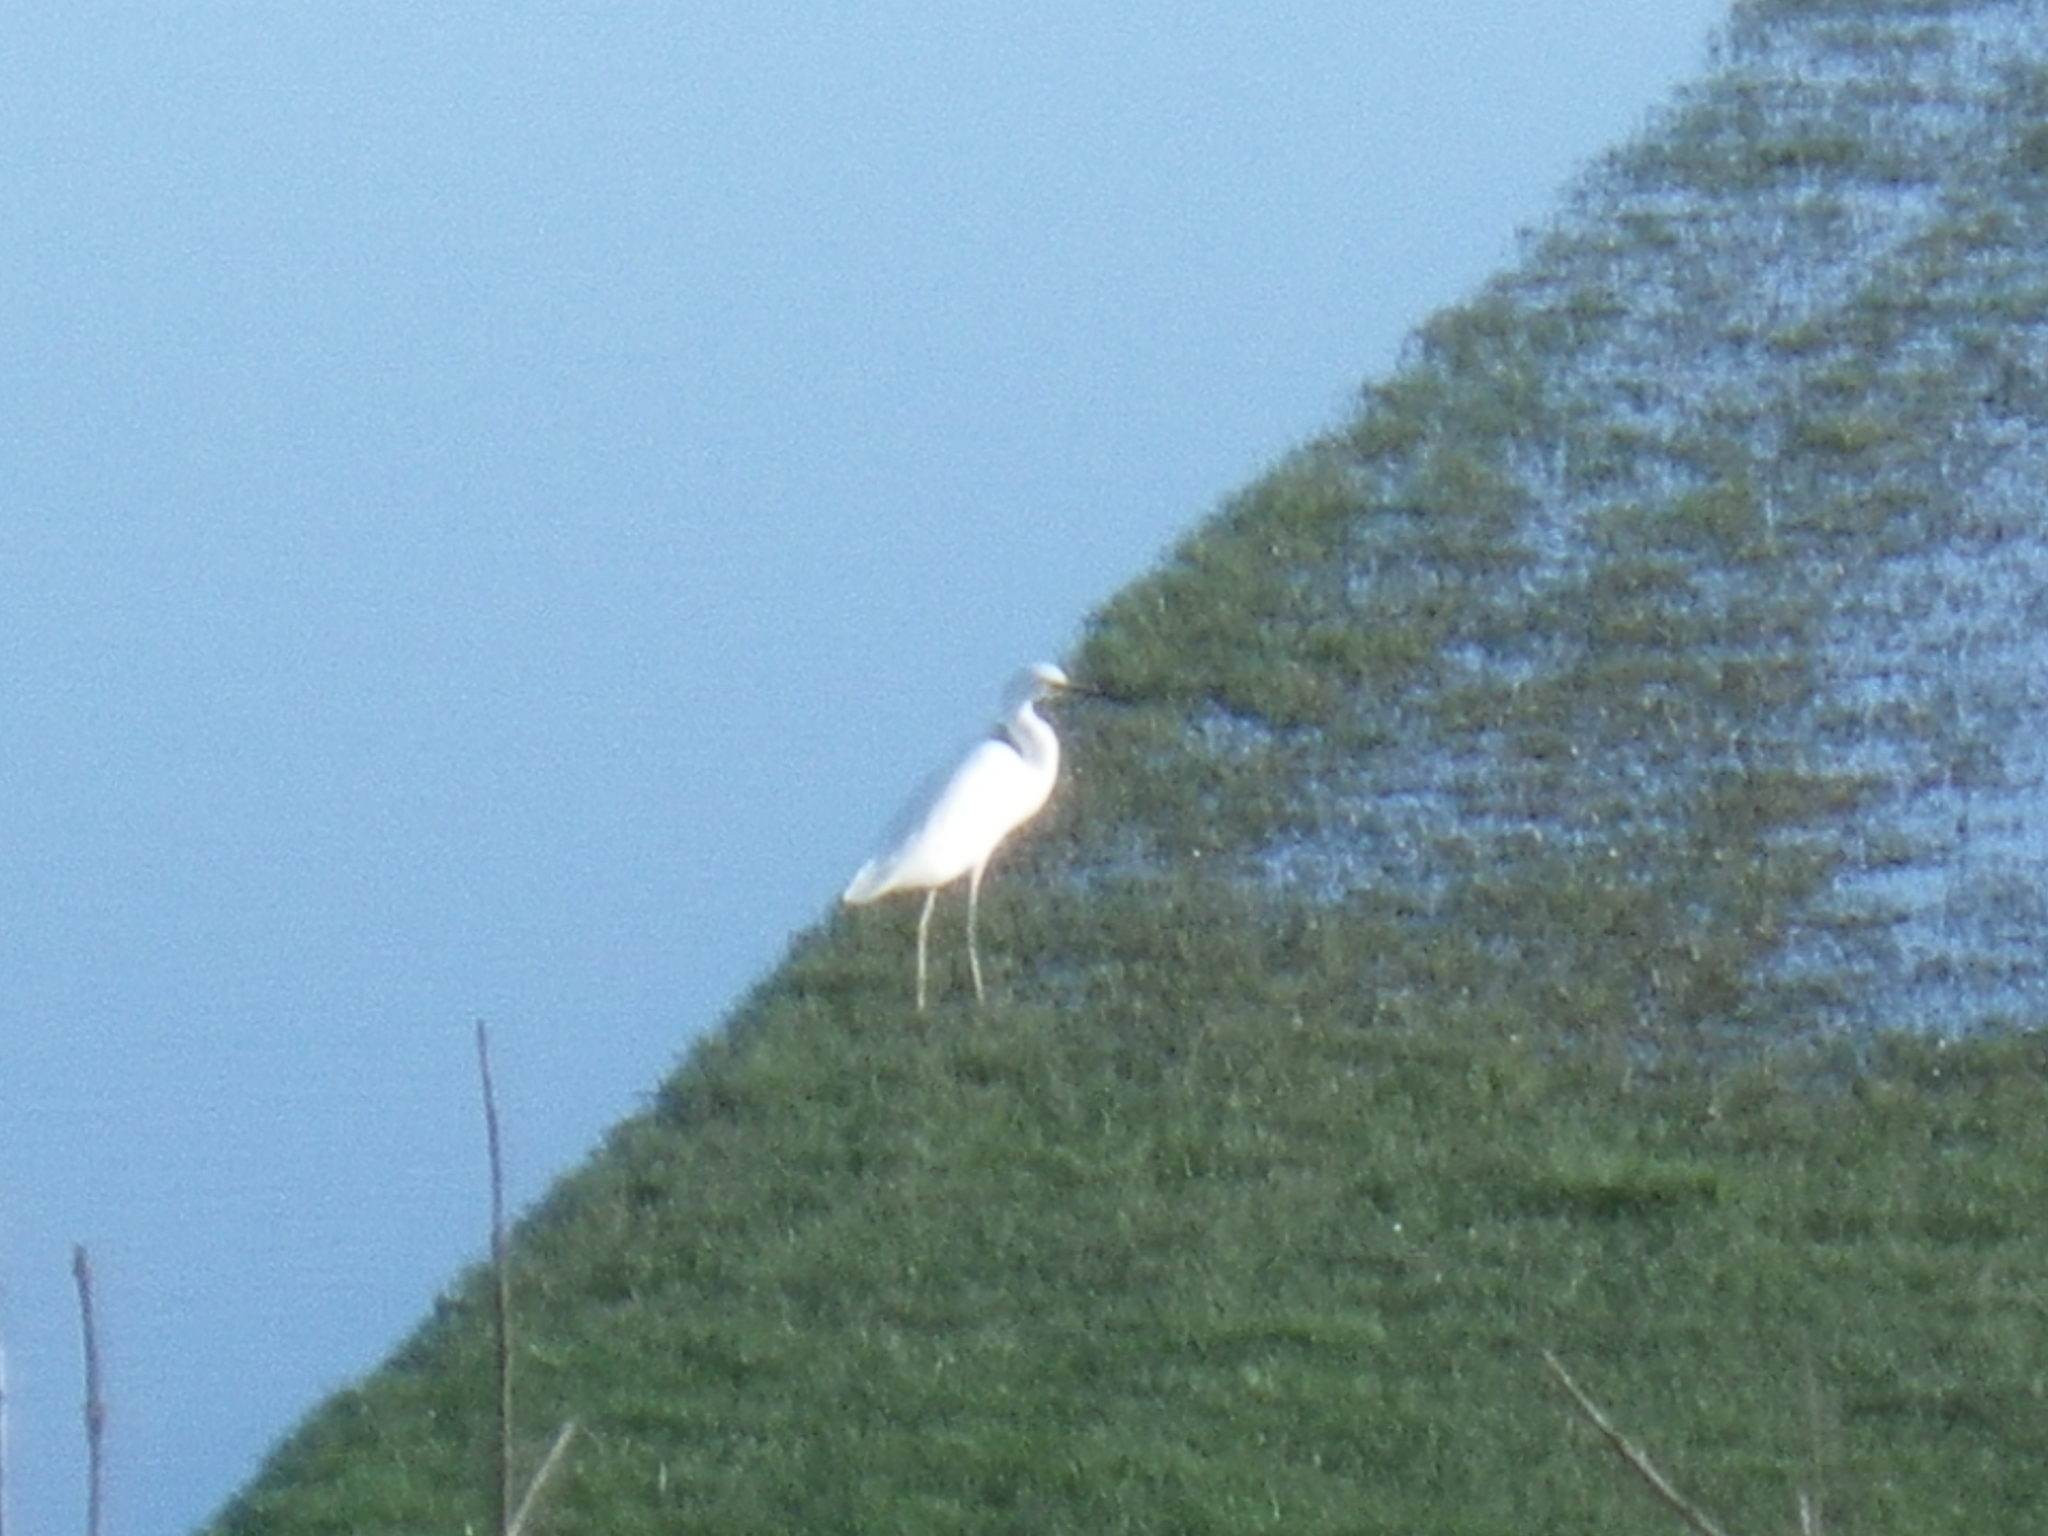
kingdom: Animalia
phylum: Chordata
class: Aves
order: Pelecaniformes
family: Ardeidae
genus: Egretta
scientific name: Egretta thula
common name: Snowy egret
